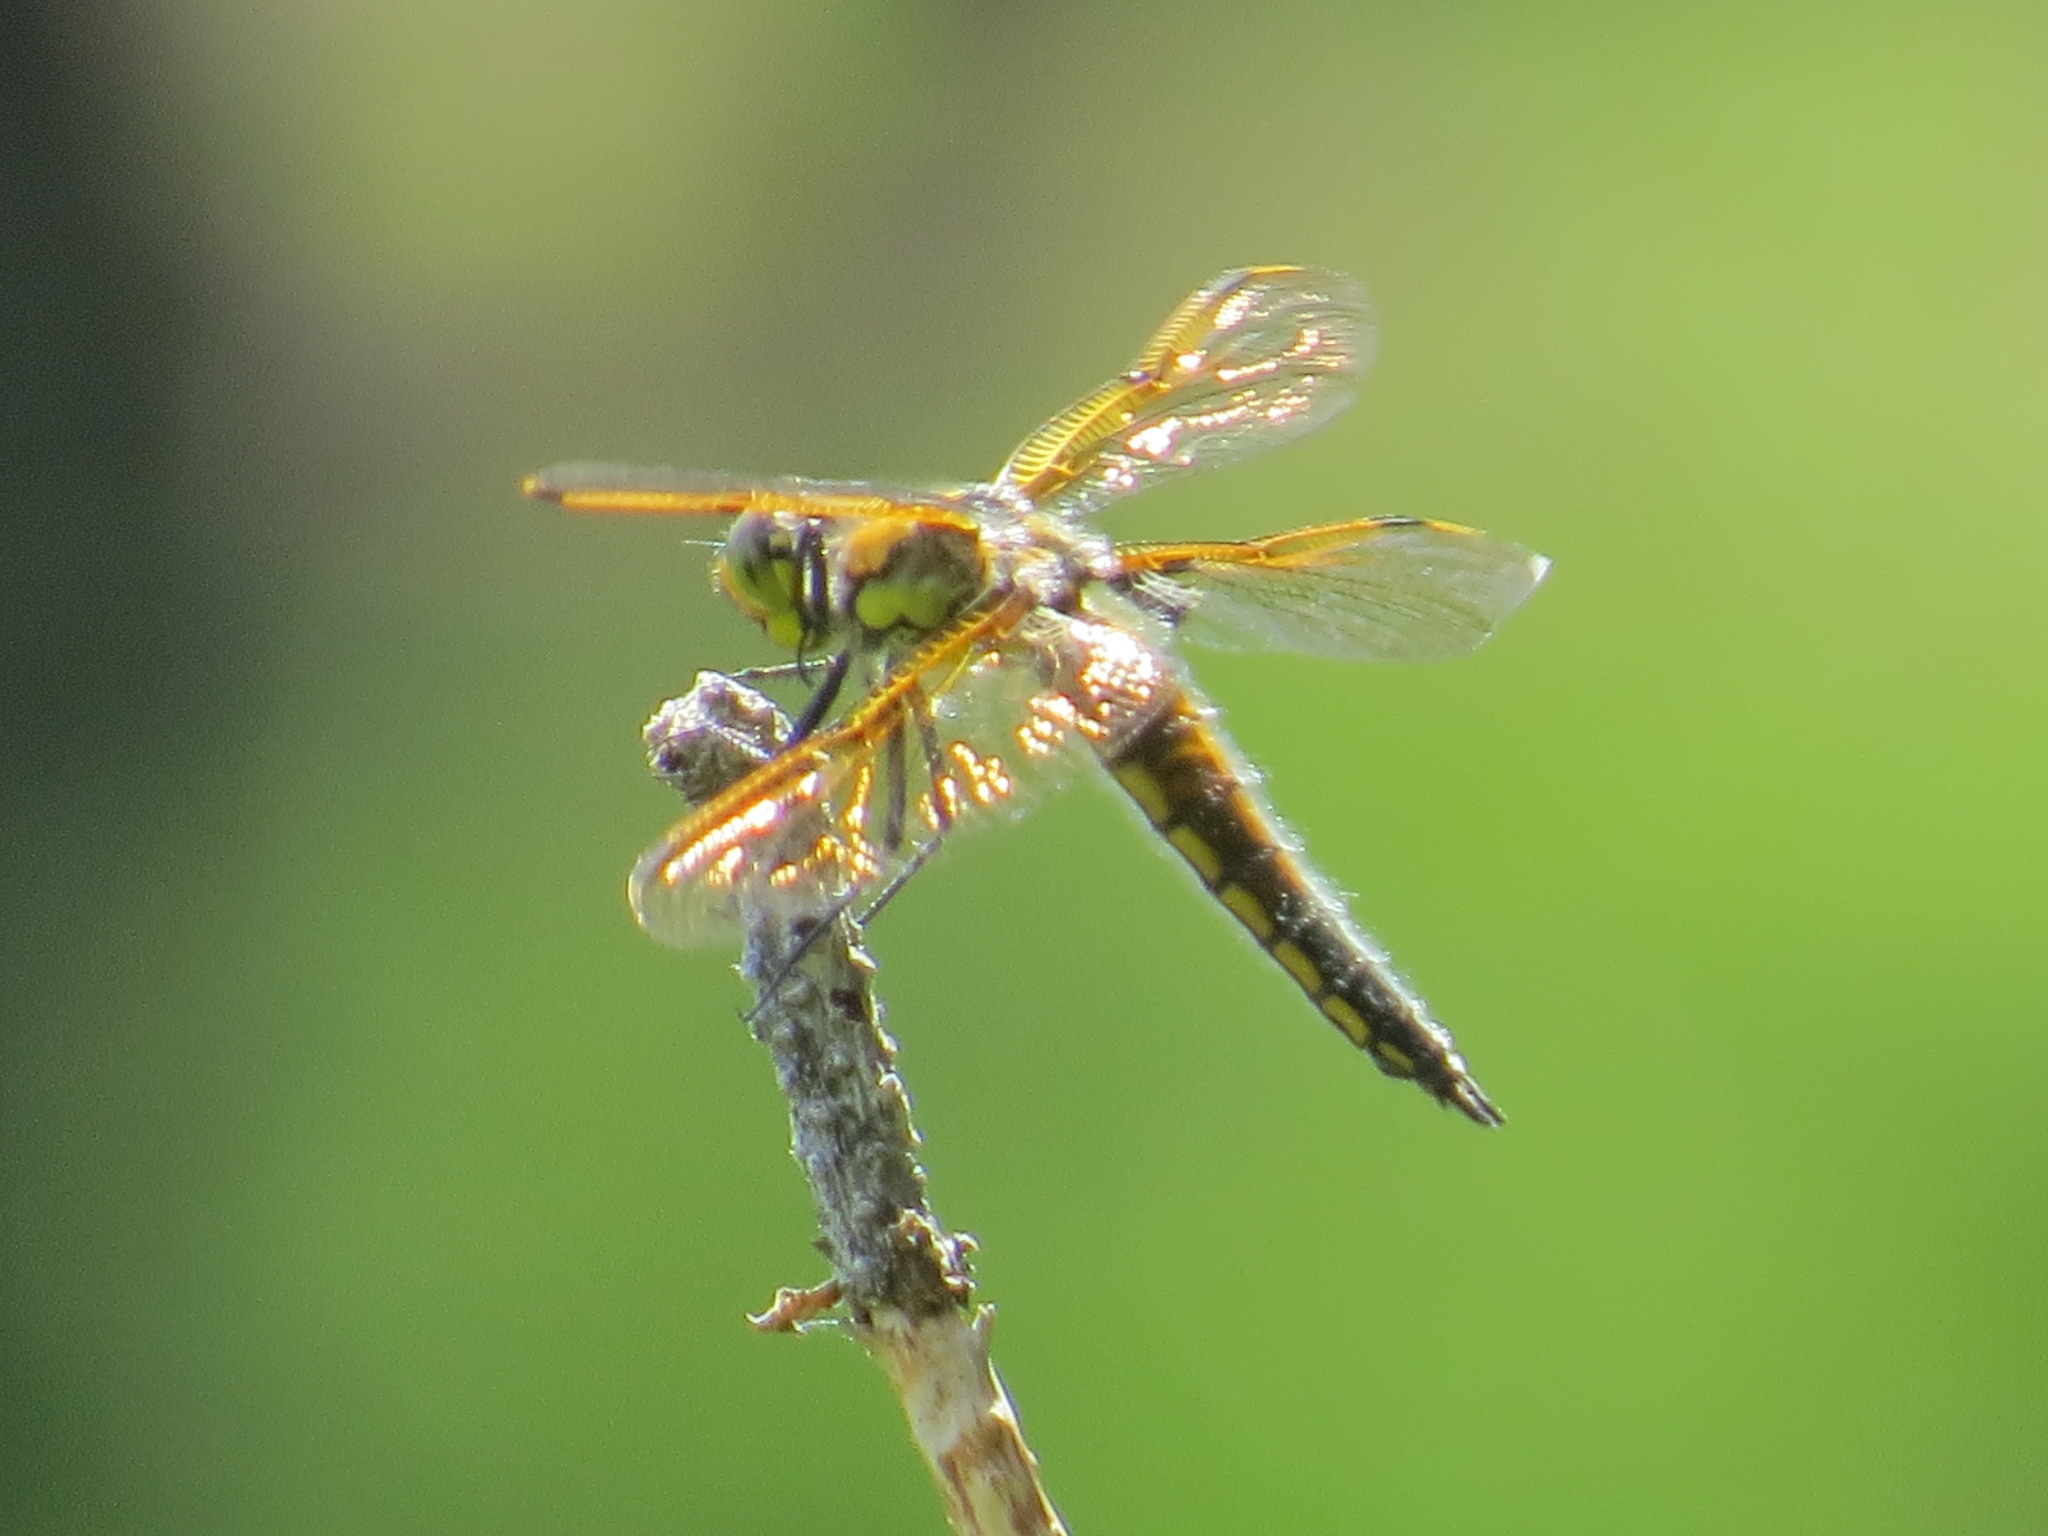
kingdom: Animalia
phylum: Arthropoda
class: Insecta
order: Odonata
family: Libellulidae
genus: Libellula
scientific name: Libellula quadrimaculata
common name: Four-spotted chaser
